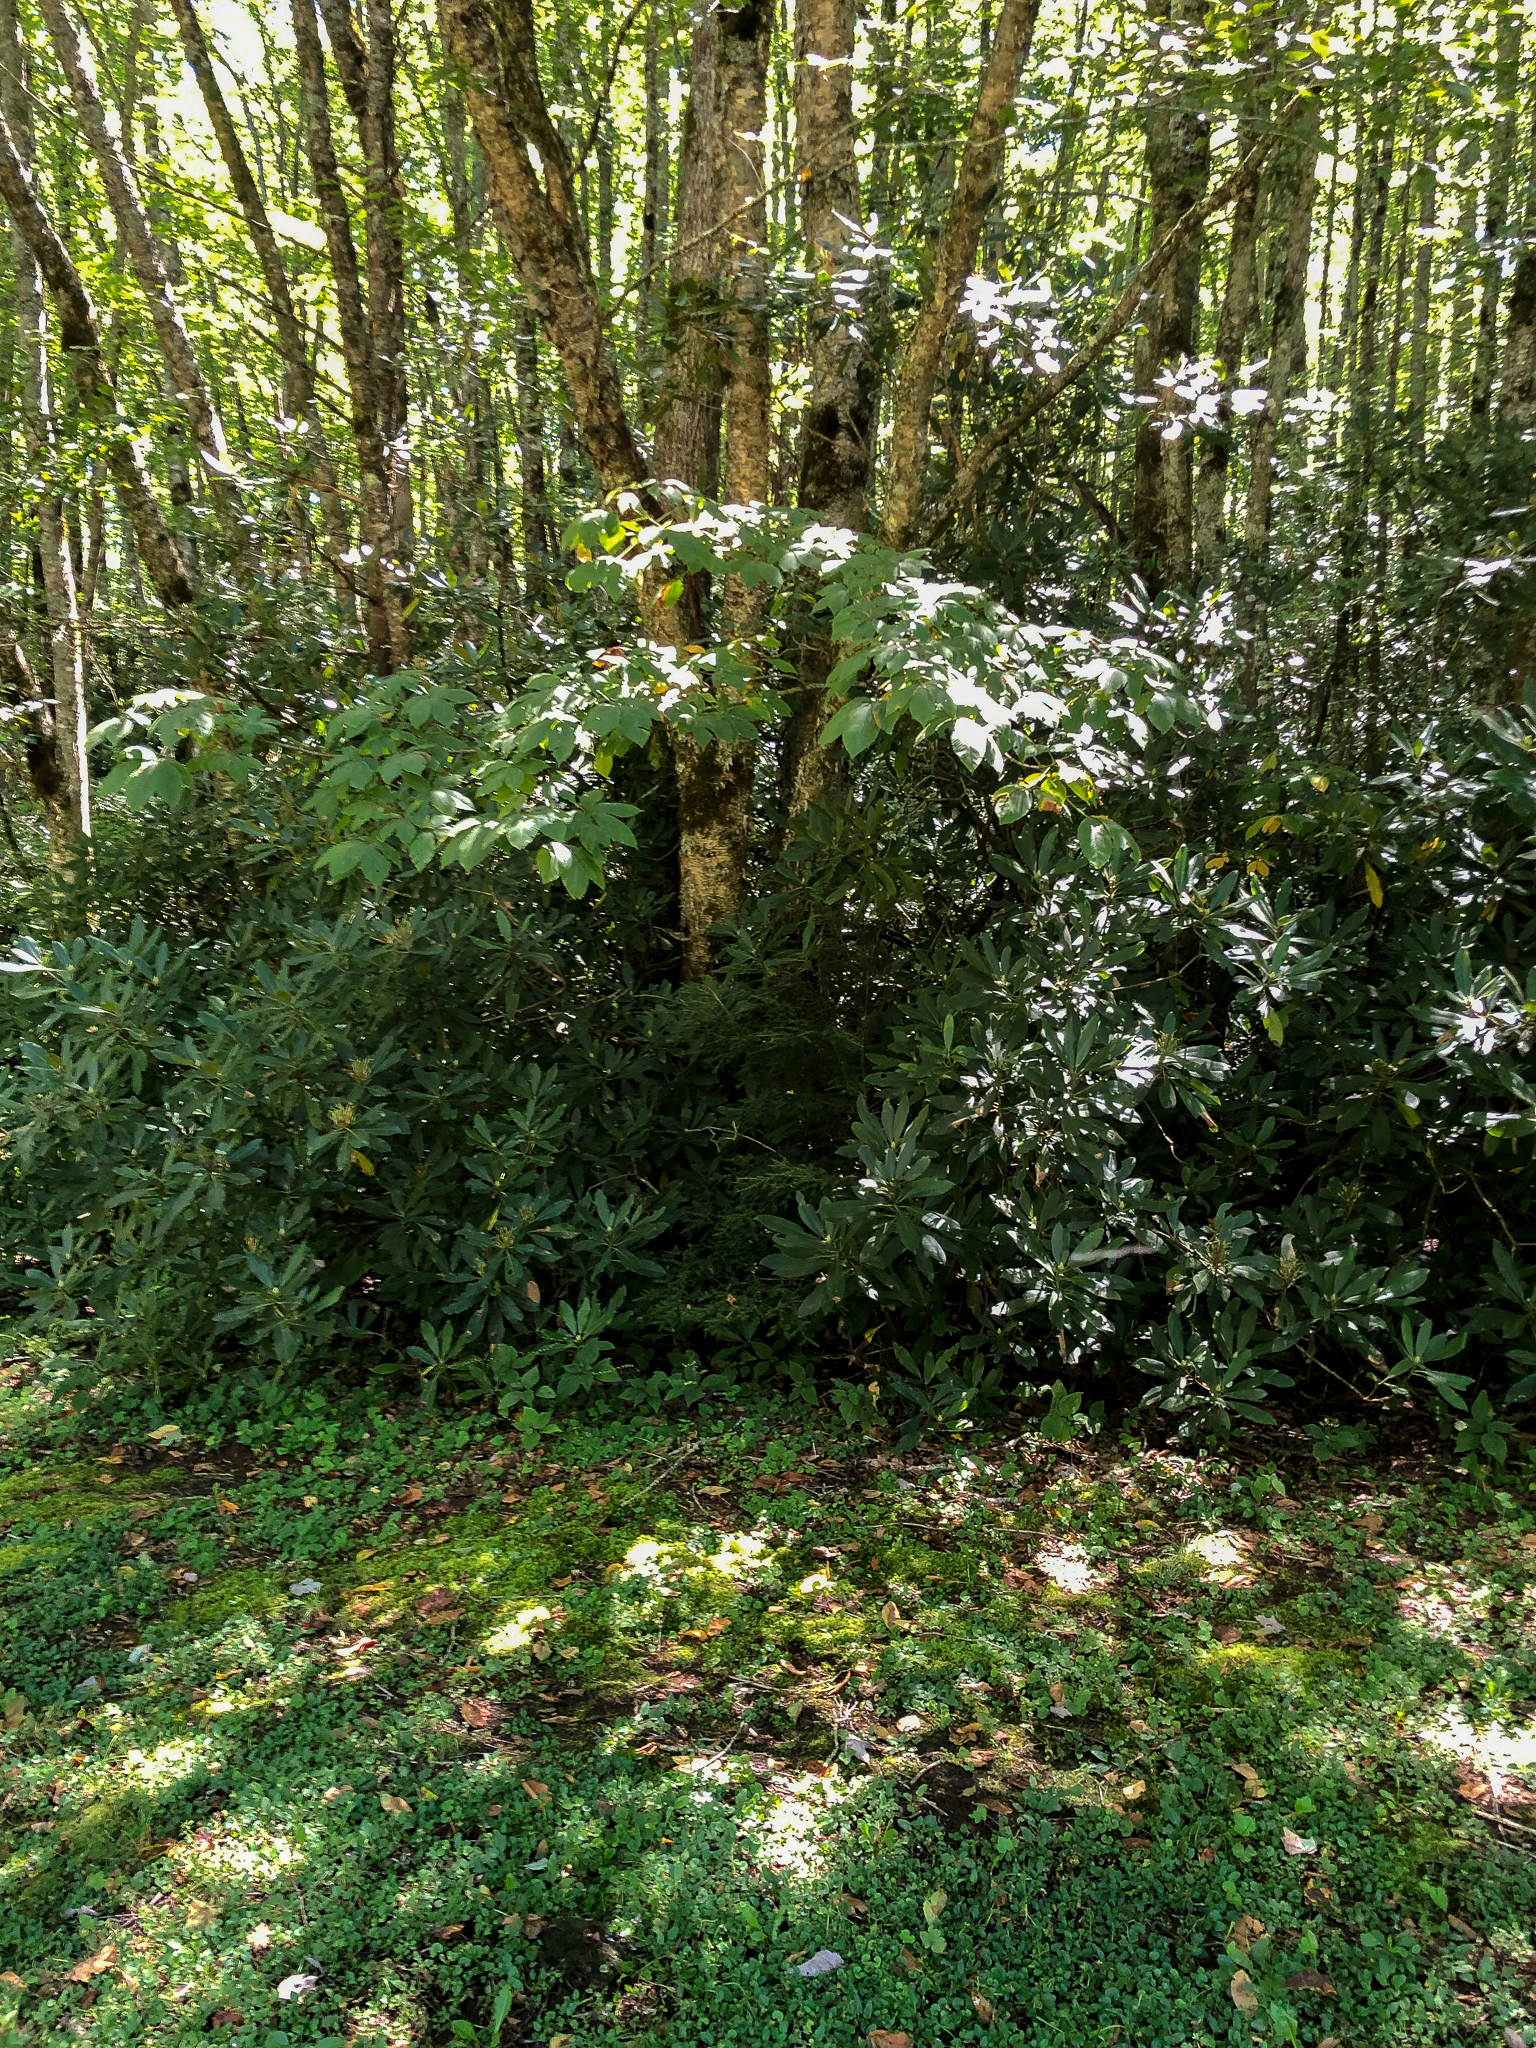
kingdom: Fungi
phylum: Basidiomycota
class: Agaricomycetes
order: Agaricales
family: Inocybaceae
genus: Inosperma
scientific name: Inosperma calamistratum
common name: Greenfoot fibrecap
